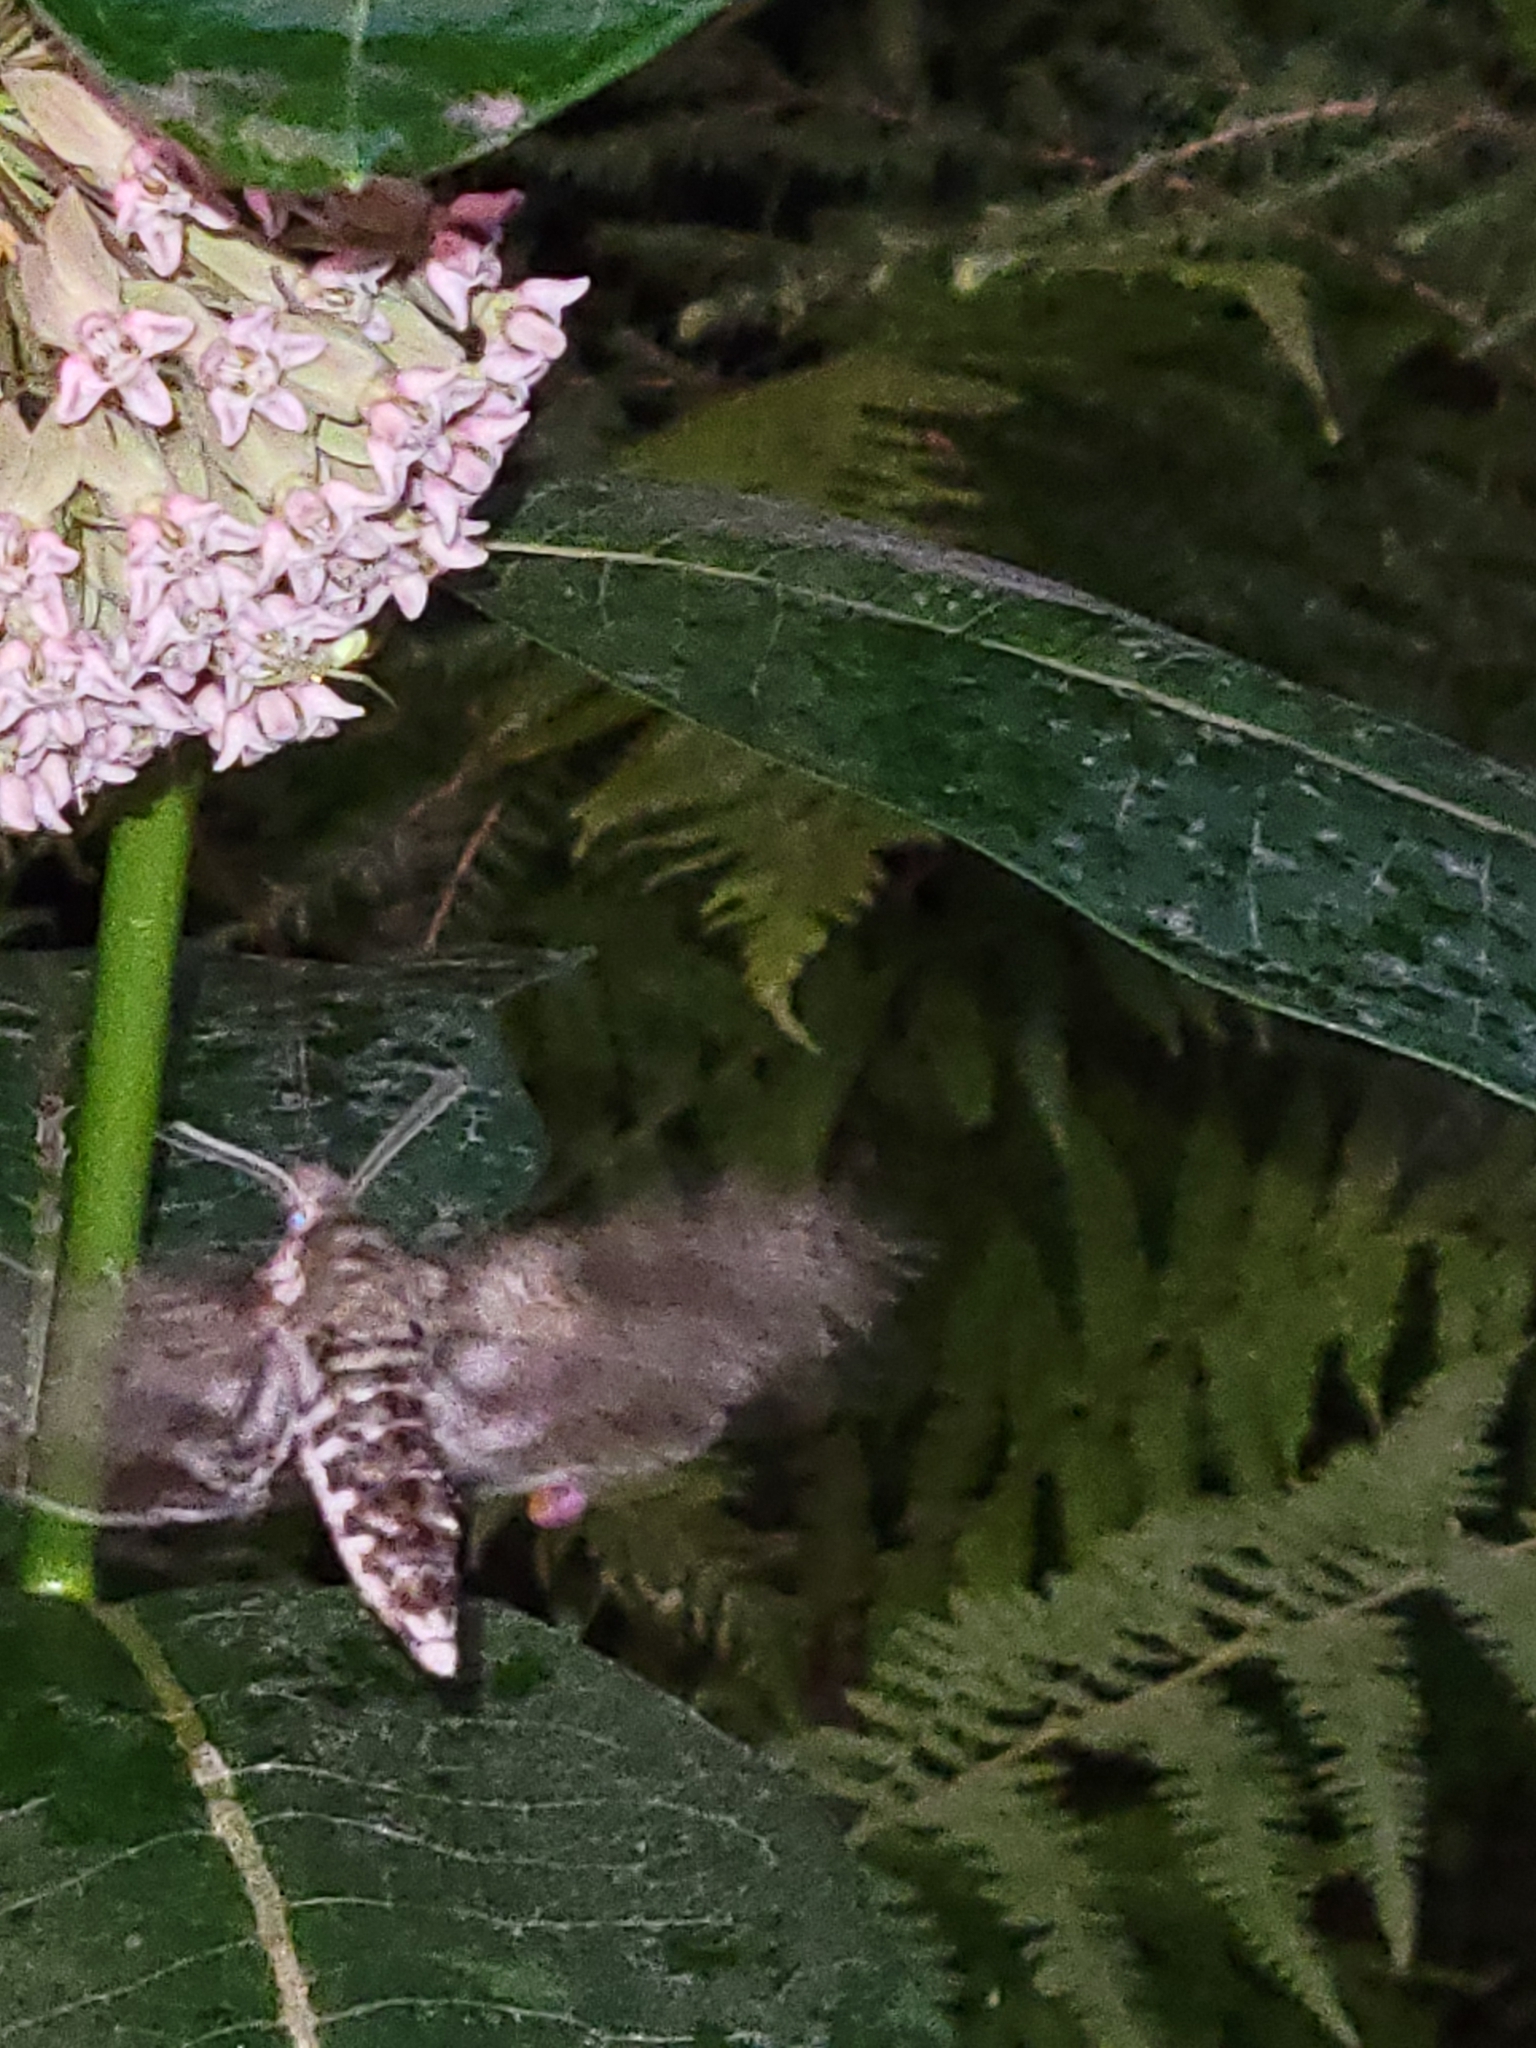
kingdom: Animalia
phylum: Arthropoda
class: Insecta
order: Lepidoptera
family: Sphingidae
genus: Dolba
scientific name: Dolba hyloeus
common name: Pawpaw sphinx
